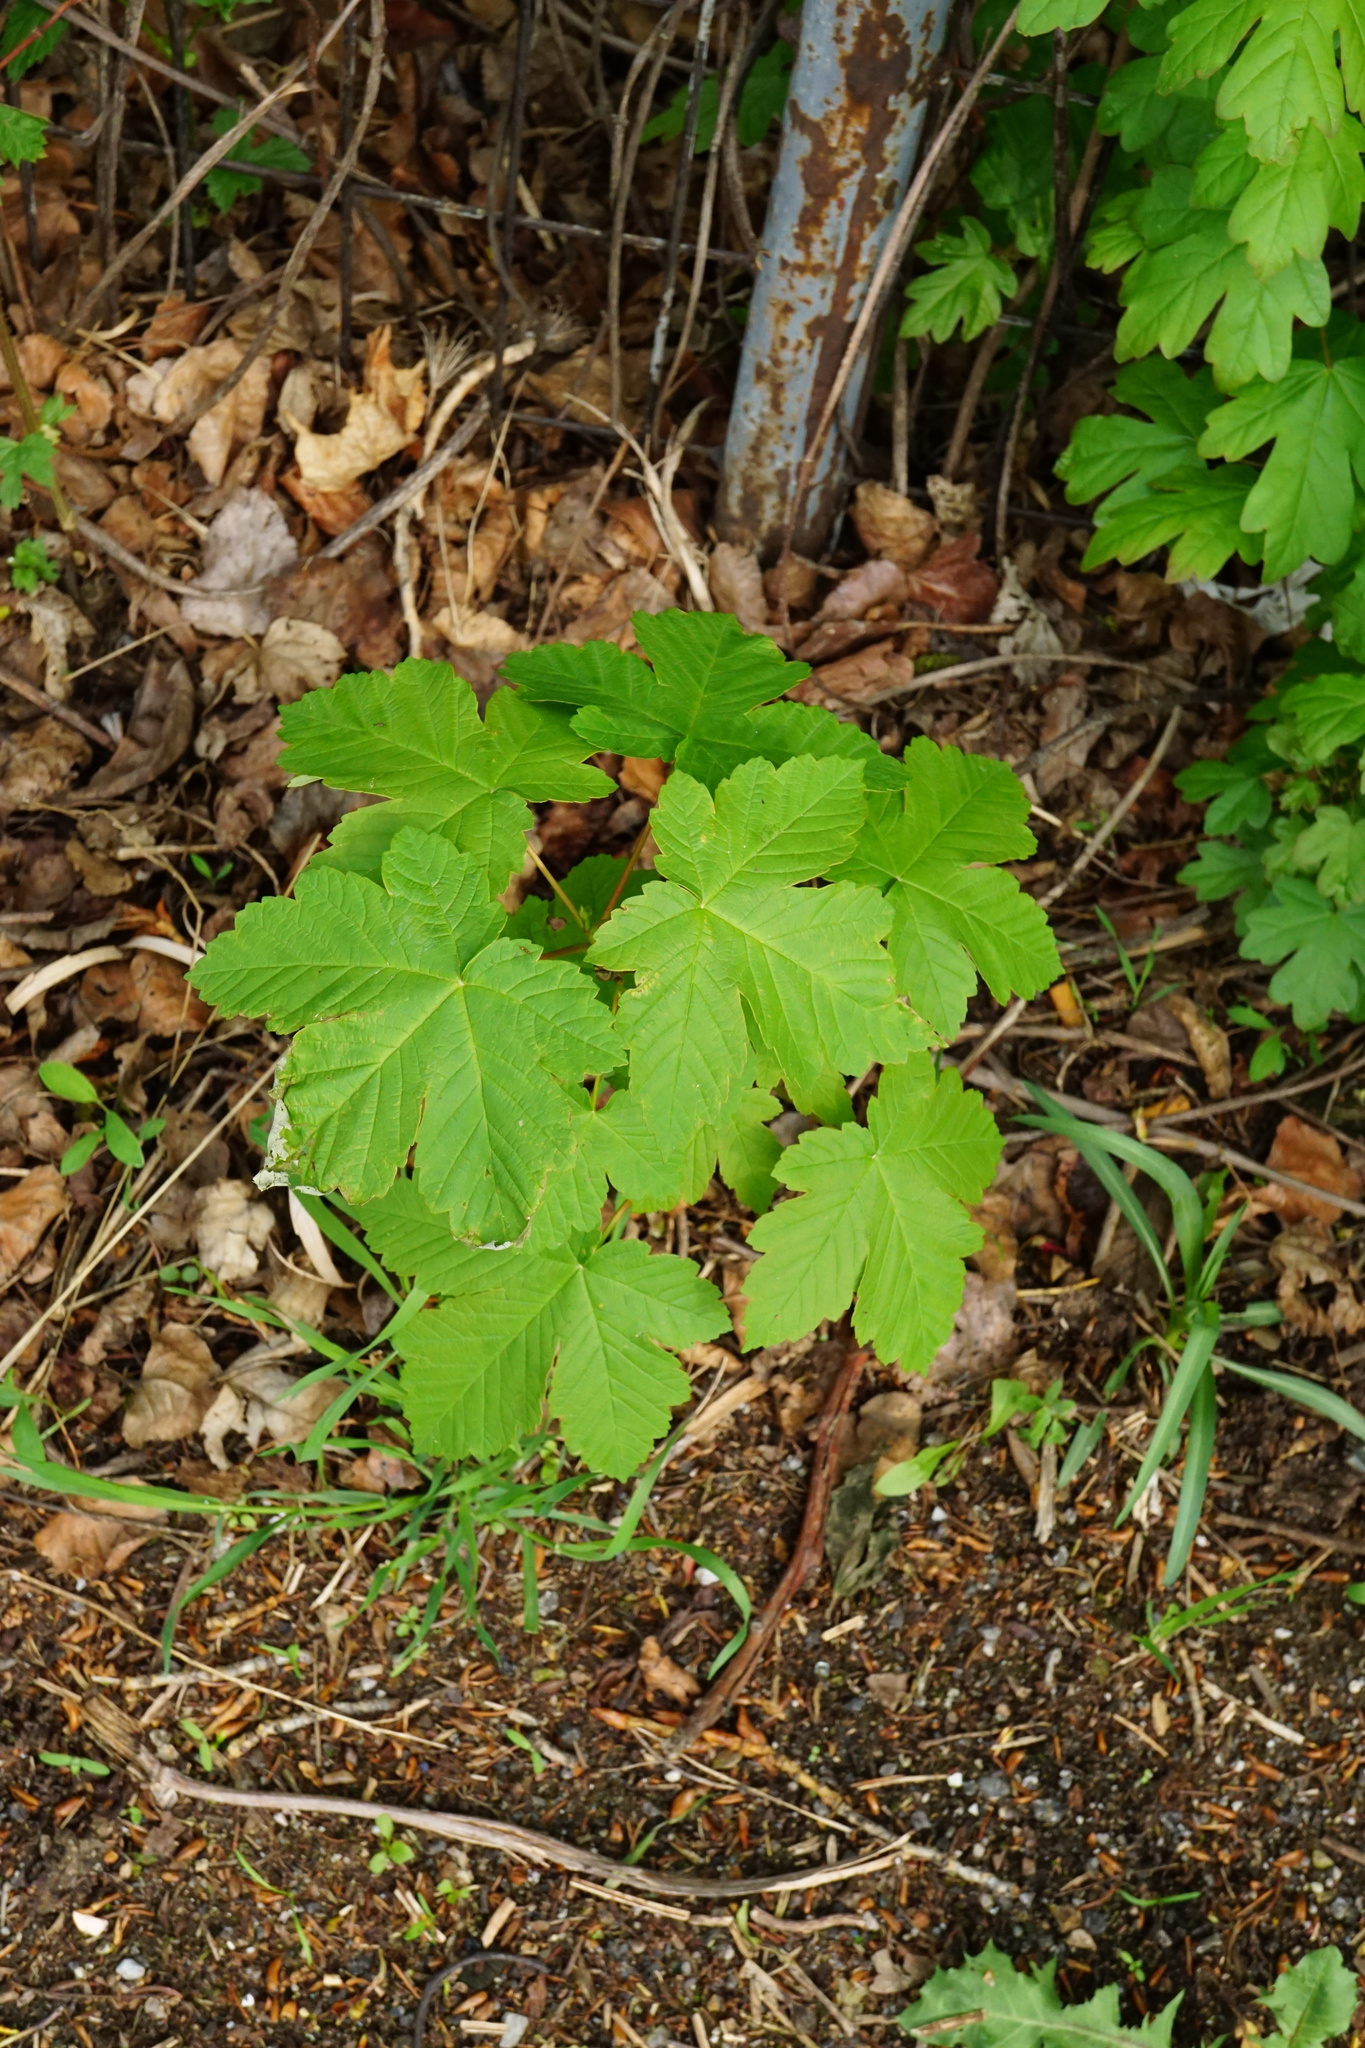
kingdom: Plantae
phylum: Tracheophyta
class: Magnoliopsida
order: Sapindales
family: Sapindaceae
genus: Acer
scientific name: Acer pseudoplatanus
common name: Sycamore
